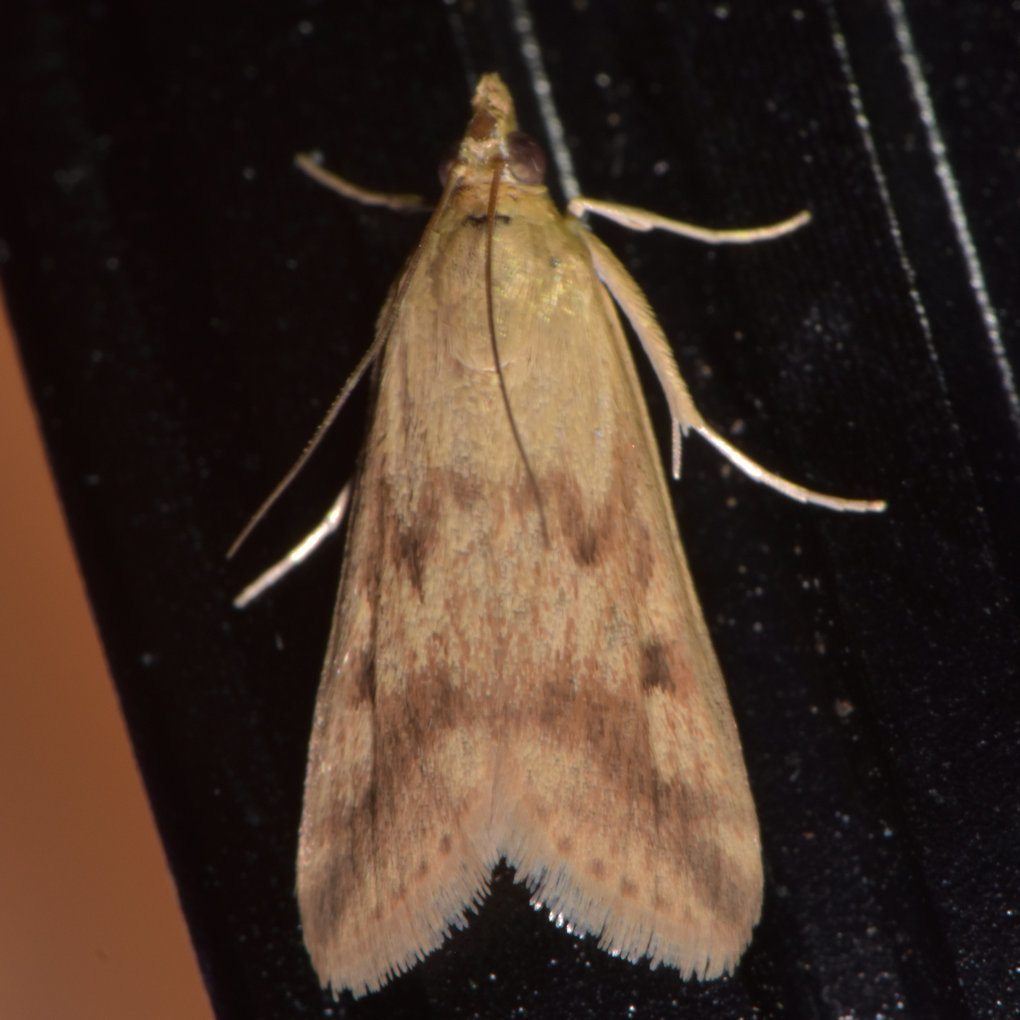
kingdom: Animalia
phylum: Arthropoda
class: Insecta
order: Lepidoptera
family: Crambidae
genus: Achyra
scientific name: Achyra bifidalis
